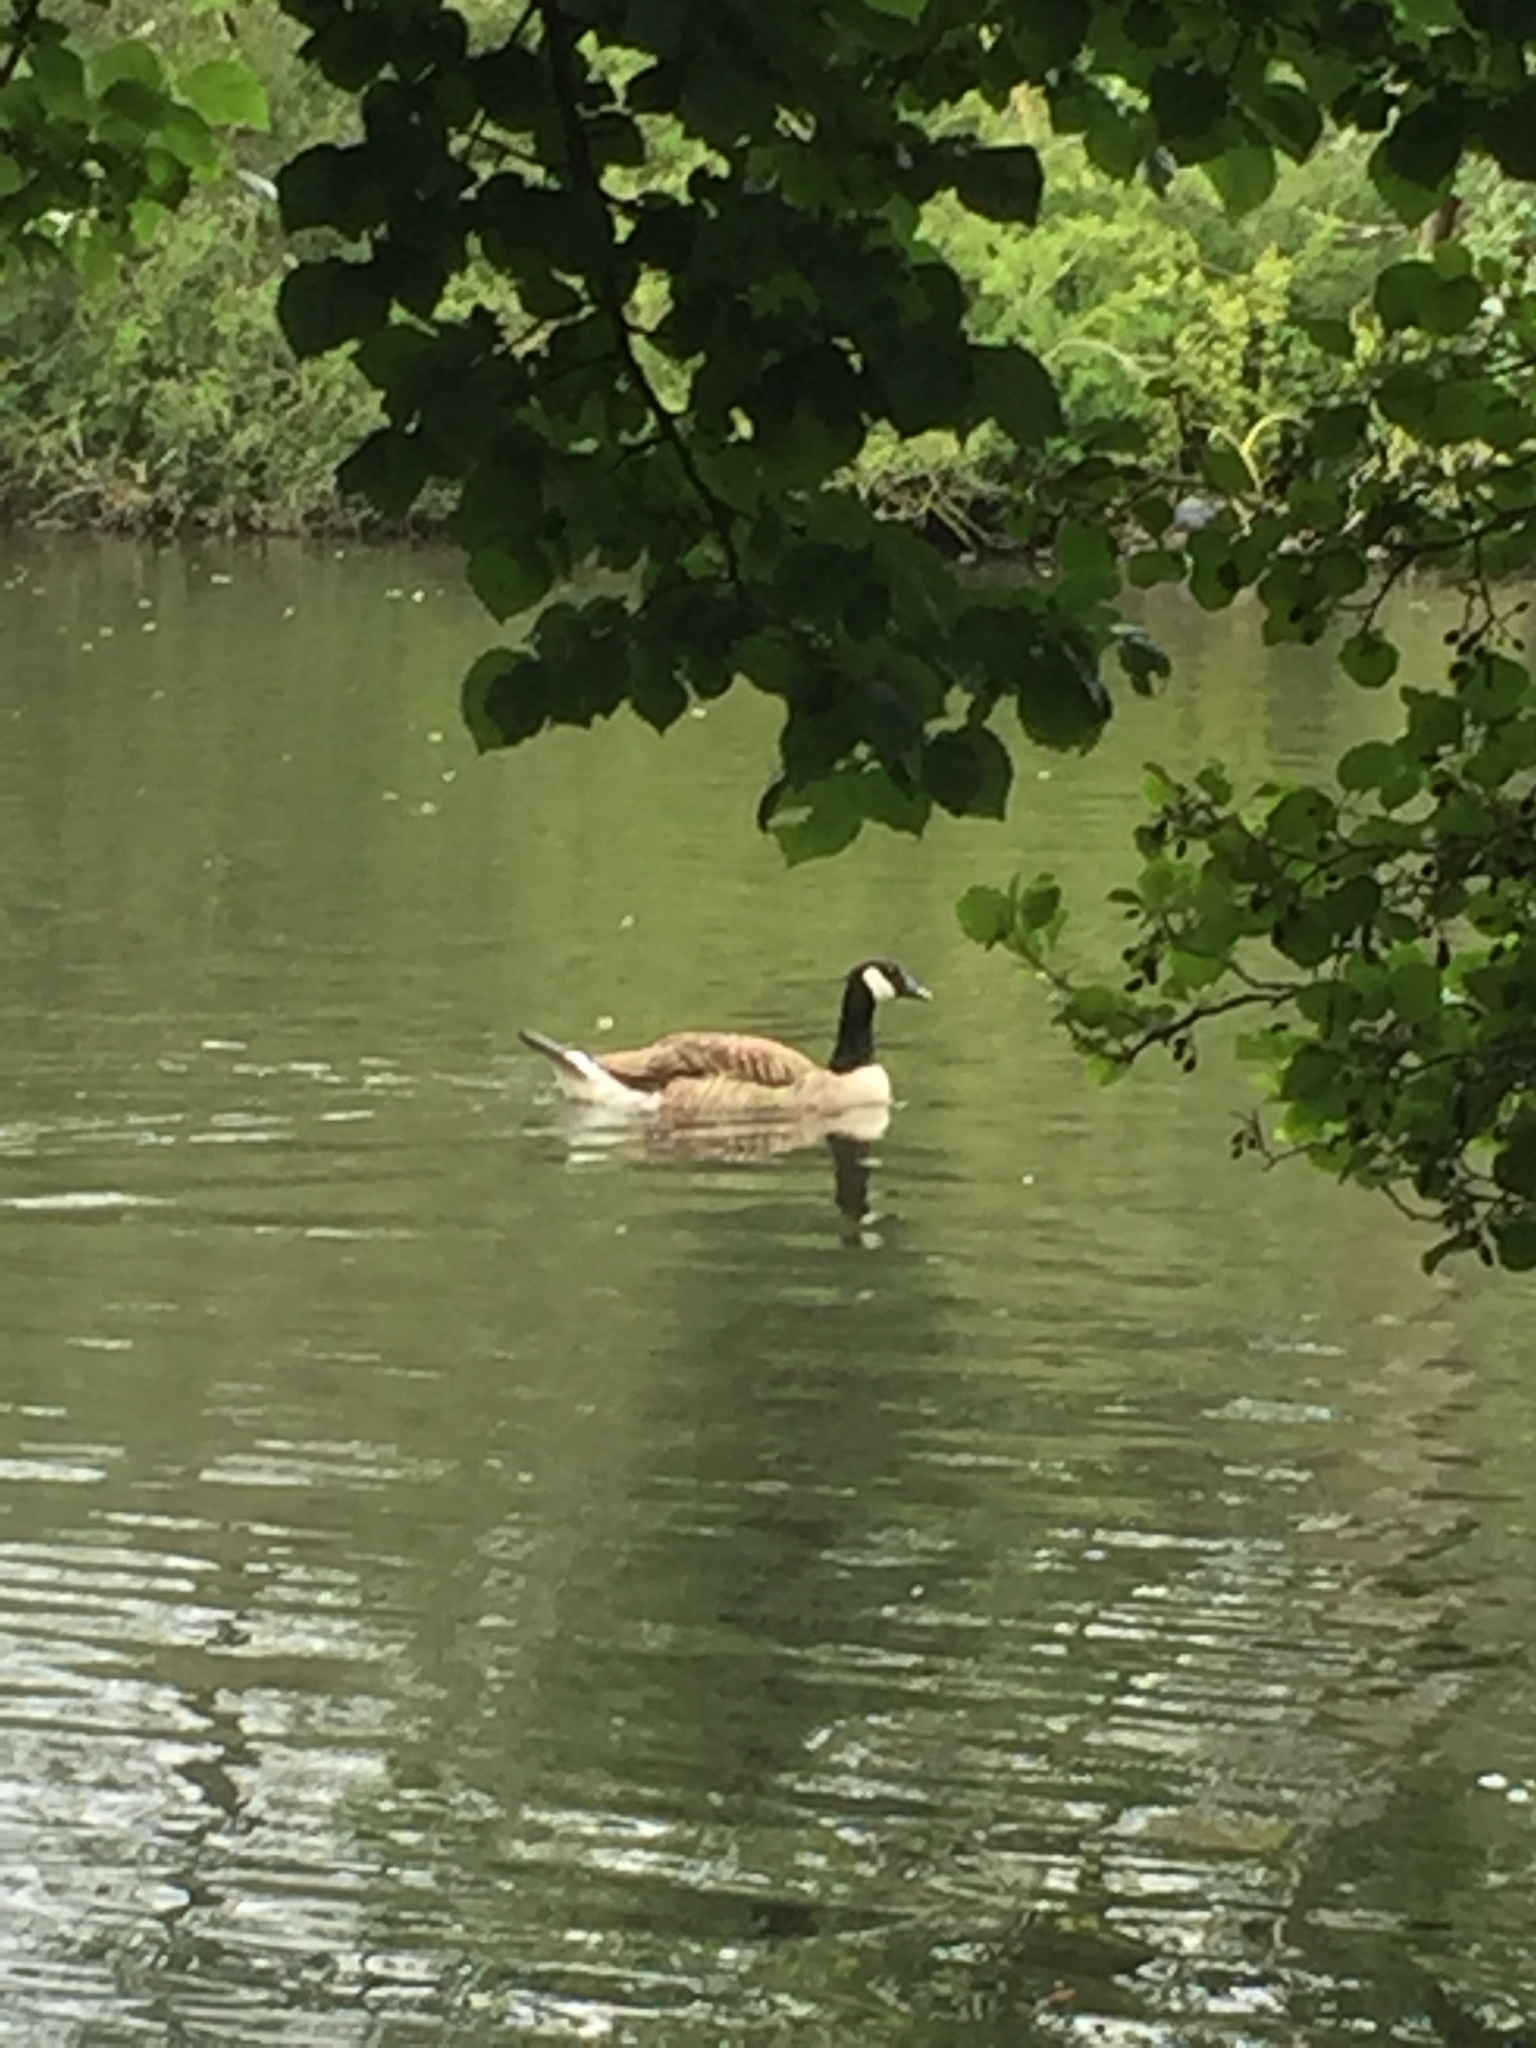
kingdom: Animalia
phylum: Chordata
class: Aves
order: Anseriformes
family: Anatidae
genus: Branta
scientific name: Branta canadensis
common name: Canada goose
